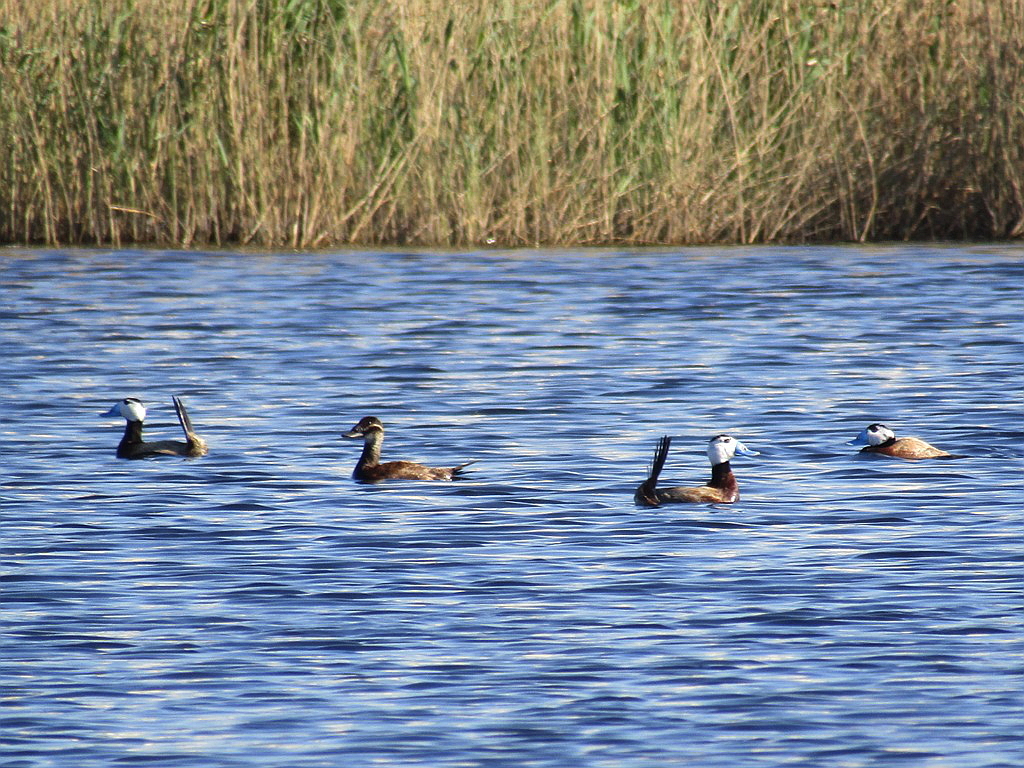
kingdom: Animalia
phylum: Chordata
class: Aves
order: Anseriformes
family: Anatidae
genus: Oxyura
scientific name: Oxyura leucocephala
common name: White-headed duck
